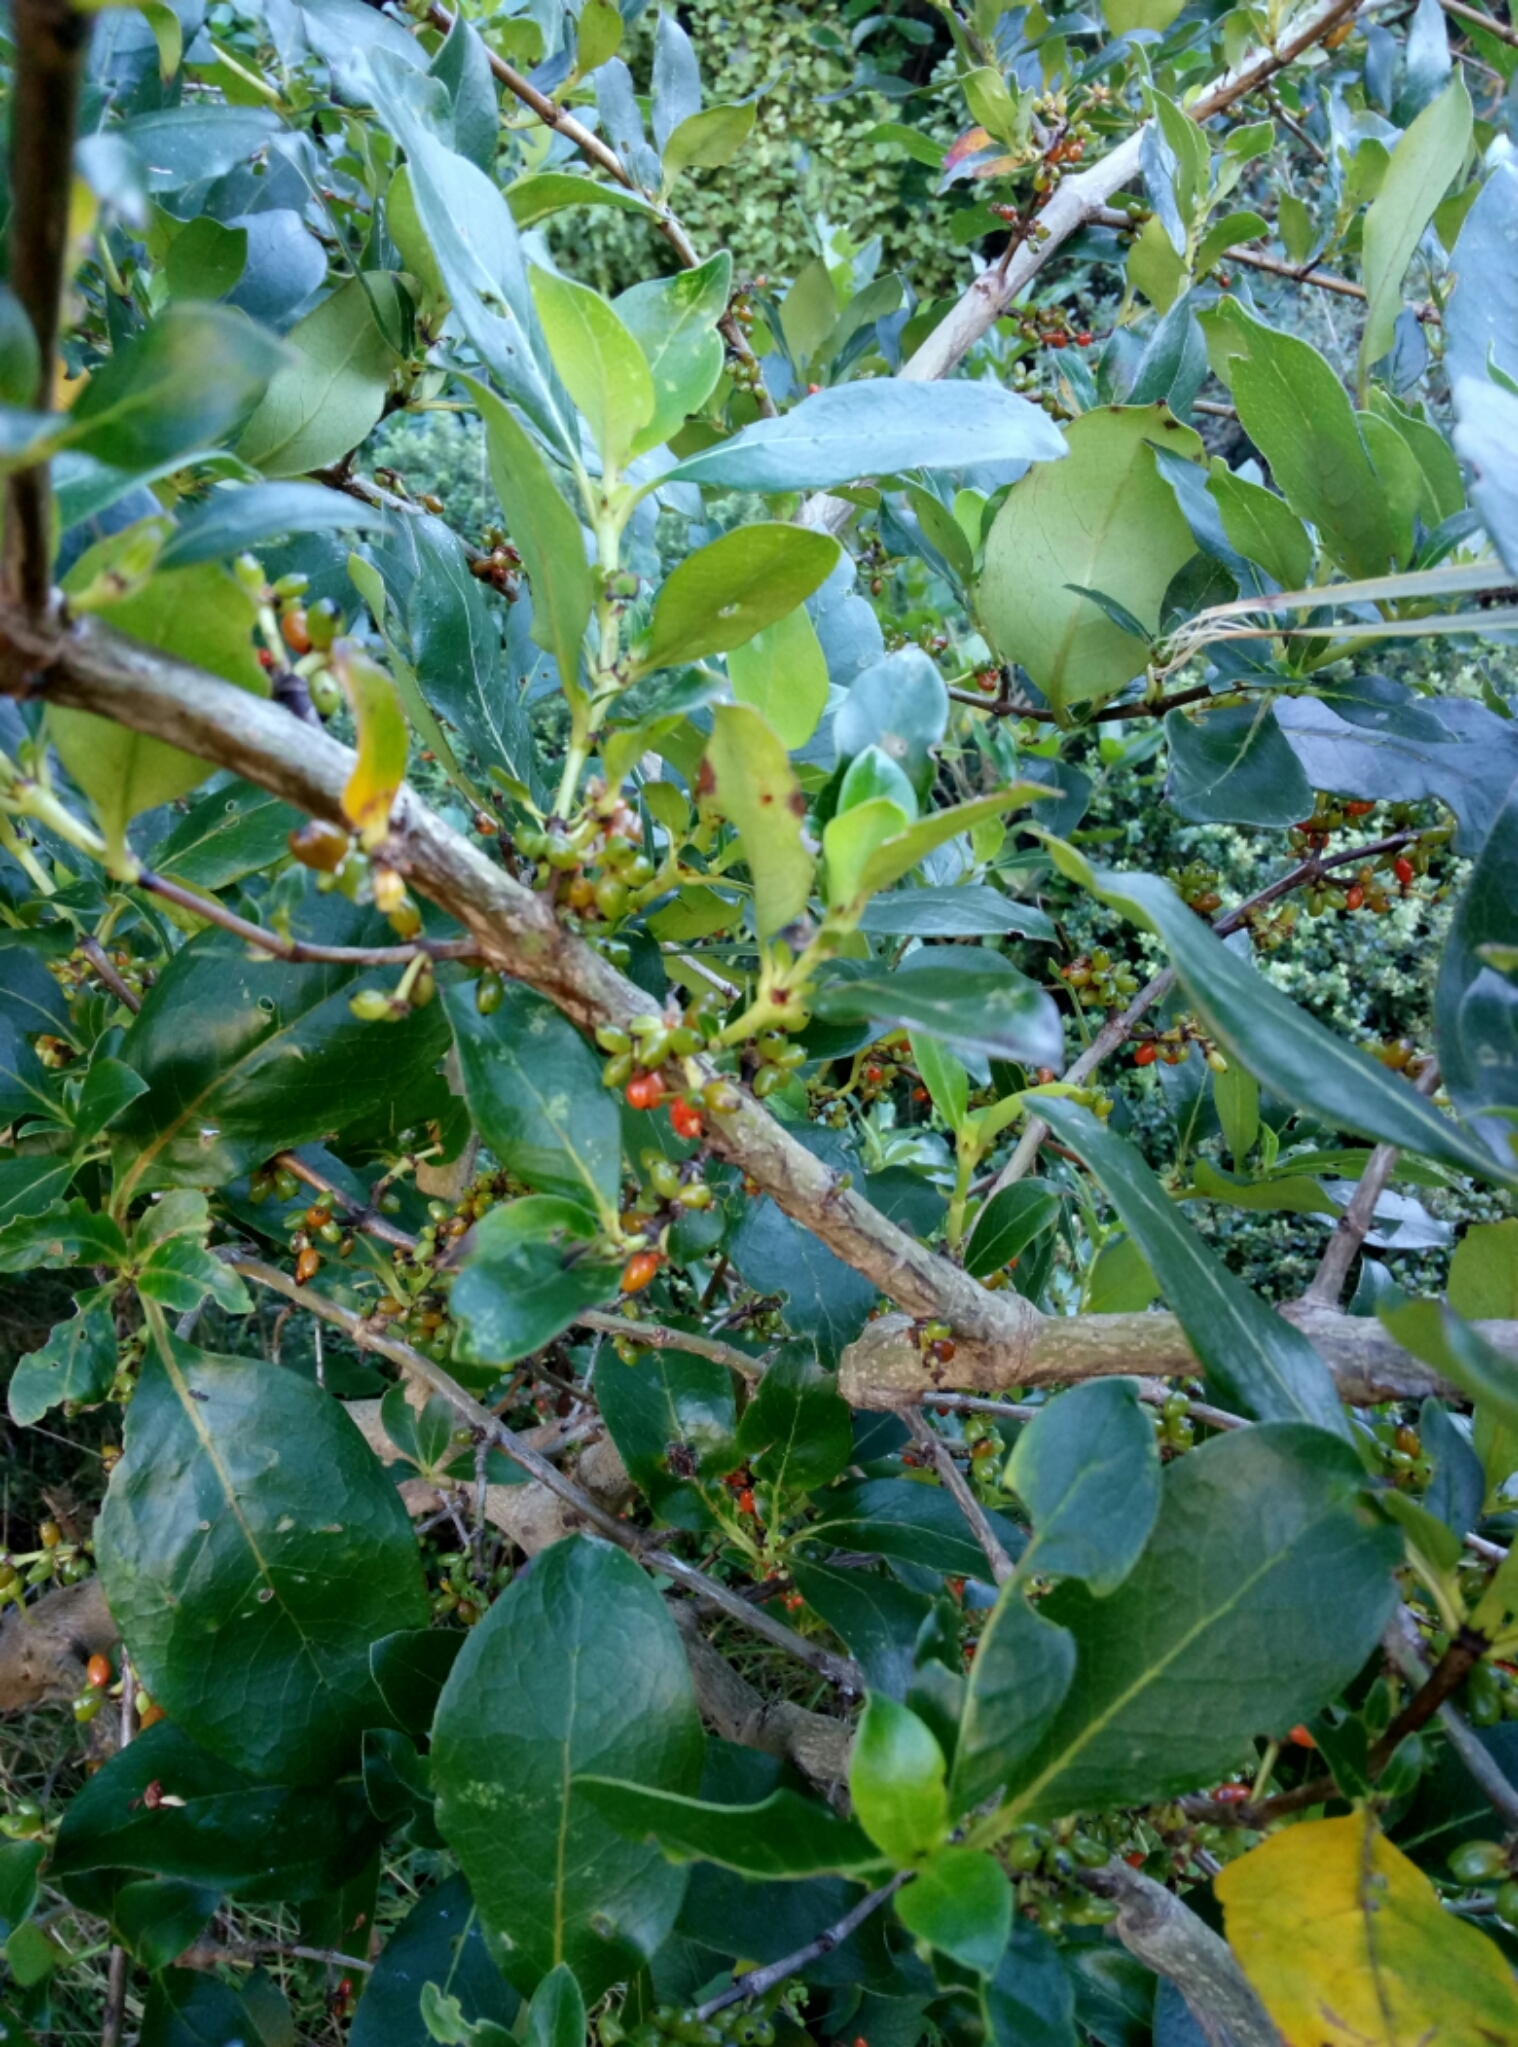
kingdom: Plantae
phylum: Tracheophyta
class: Magnoliopsida
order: Gentianales
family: Rubiaceae
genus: Coprosma
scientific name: Coprosma robusta
